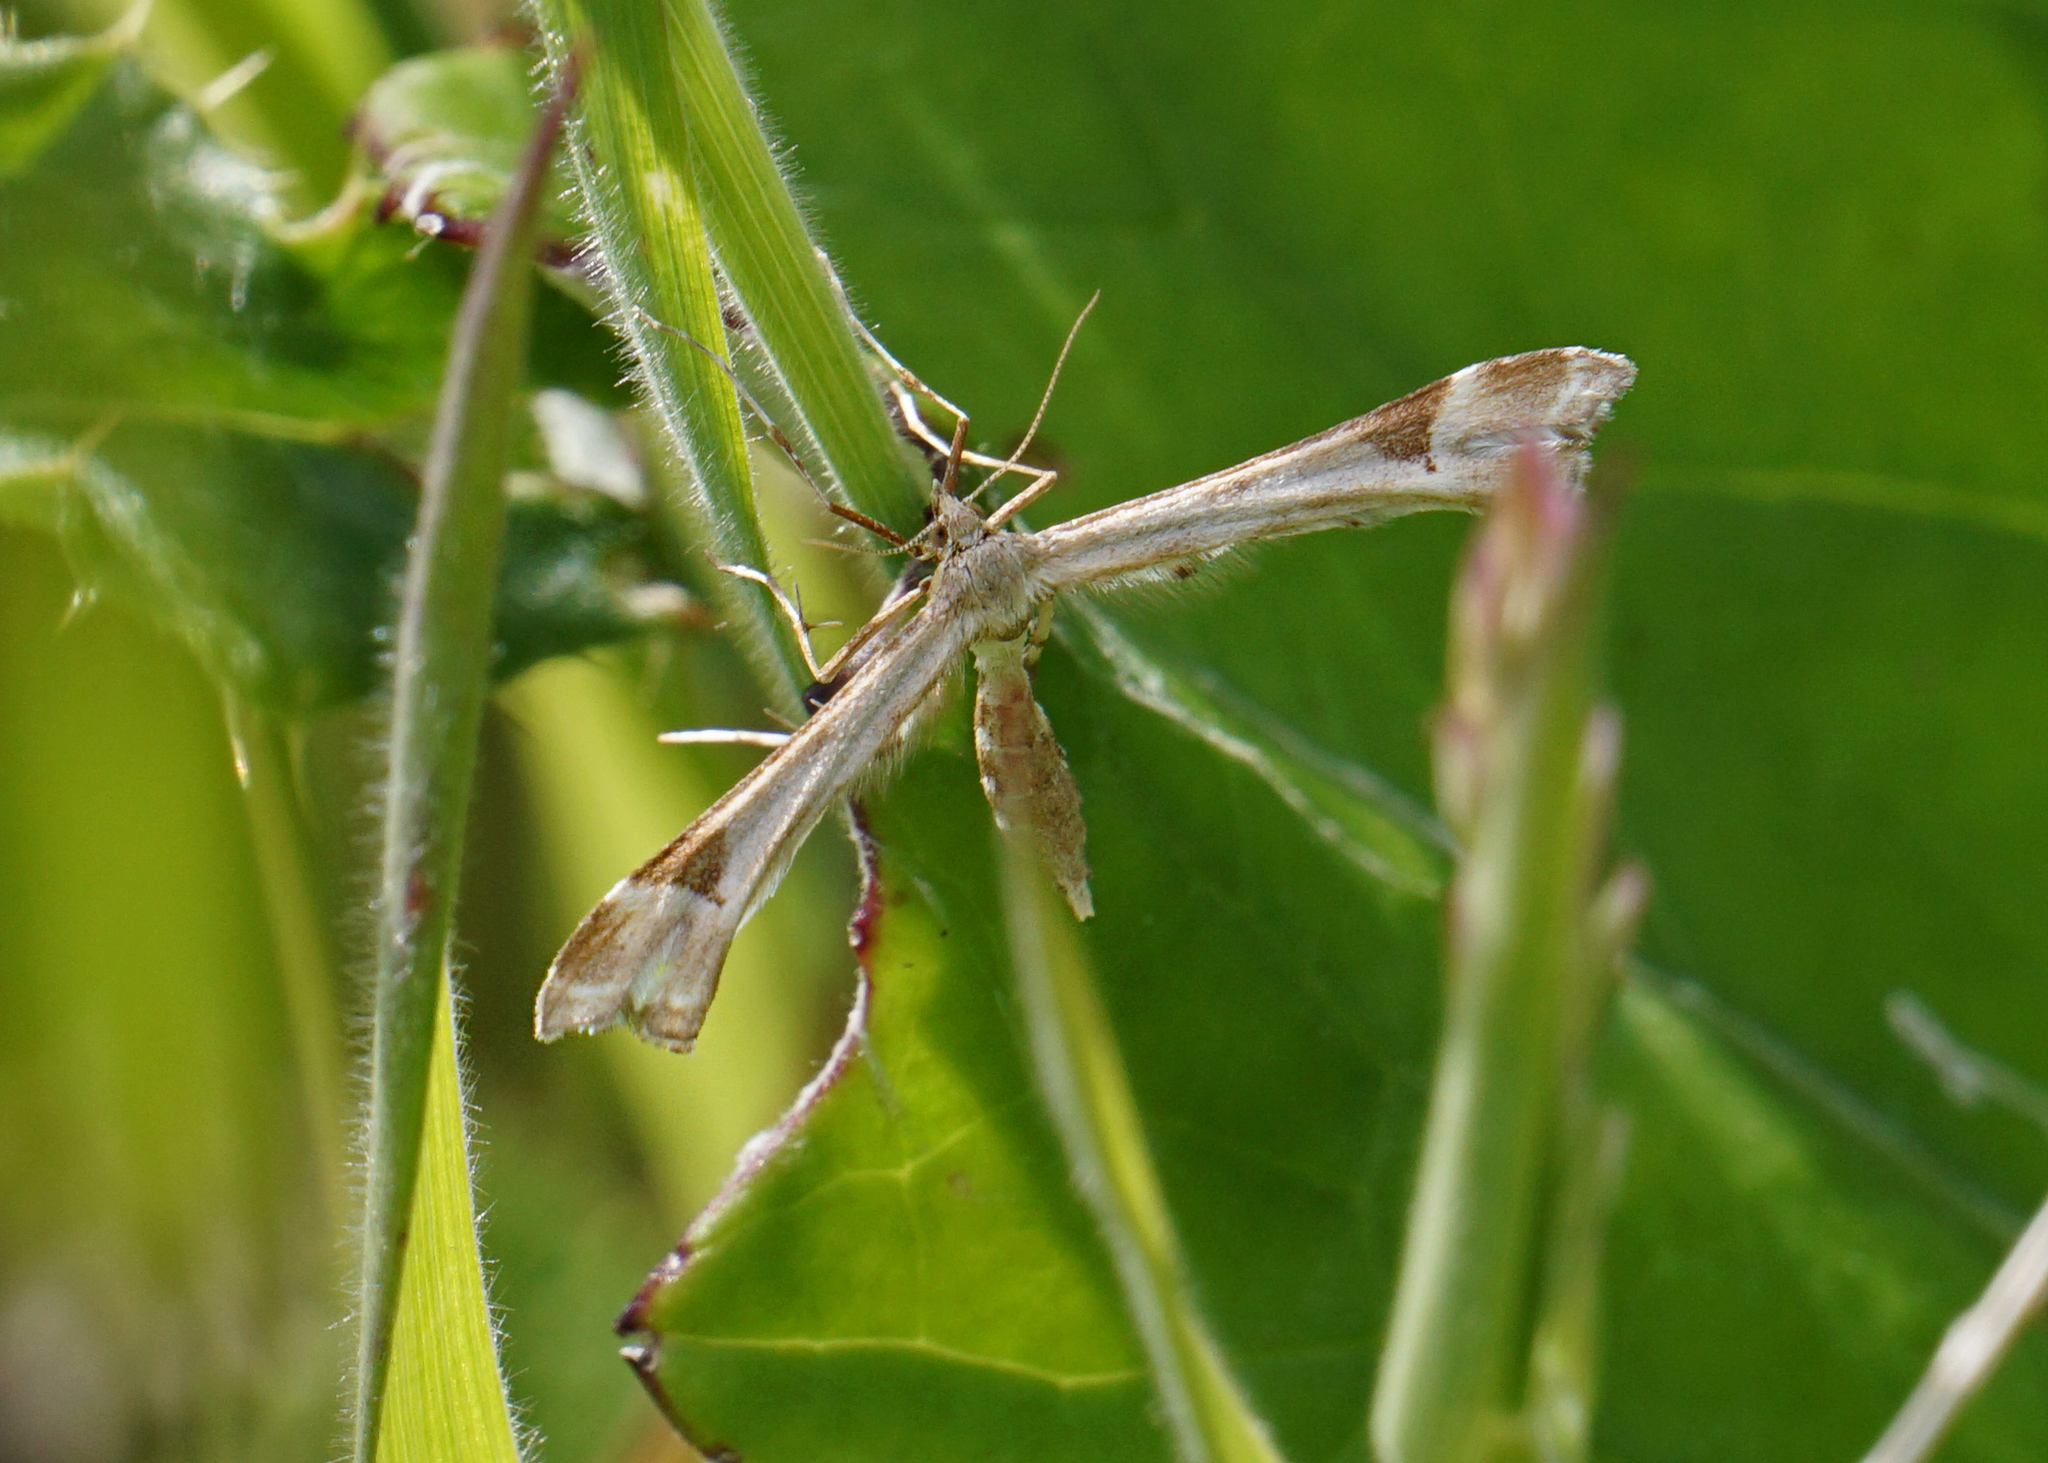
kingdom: Animalia
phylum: Arthropoda
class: Insecta
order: Lepidoptera
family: Pterophoridae
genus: Platyptilia
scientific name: Platyptilia gonodactyla
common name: Triangle plume
